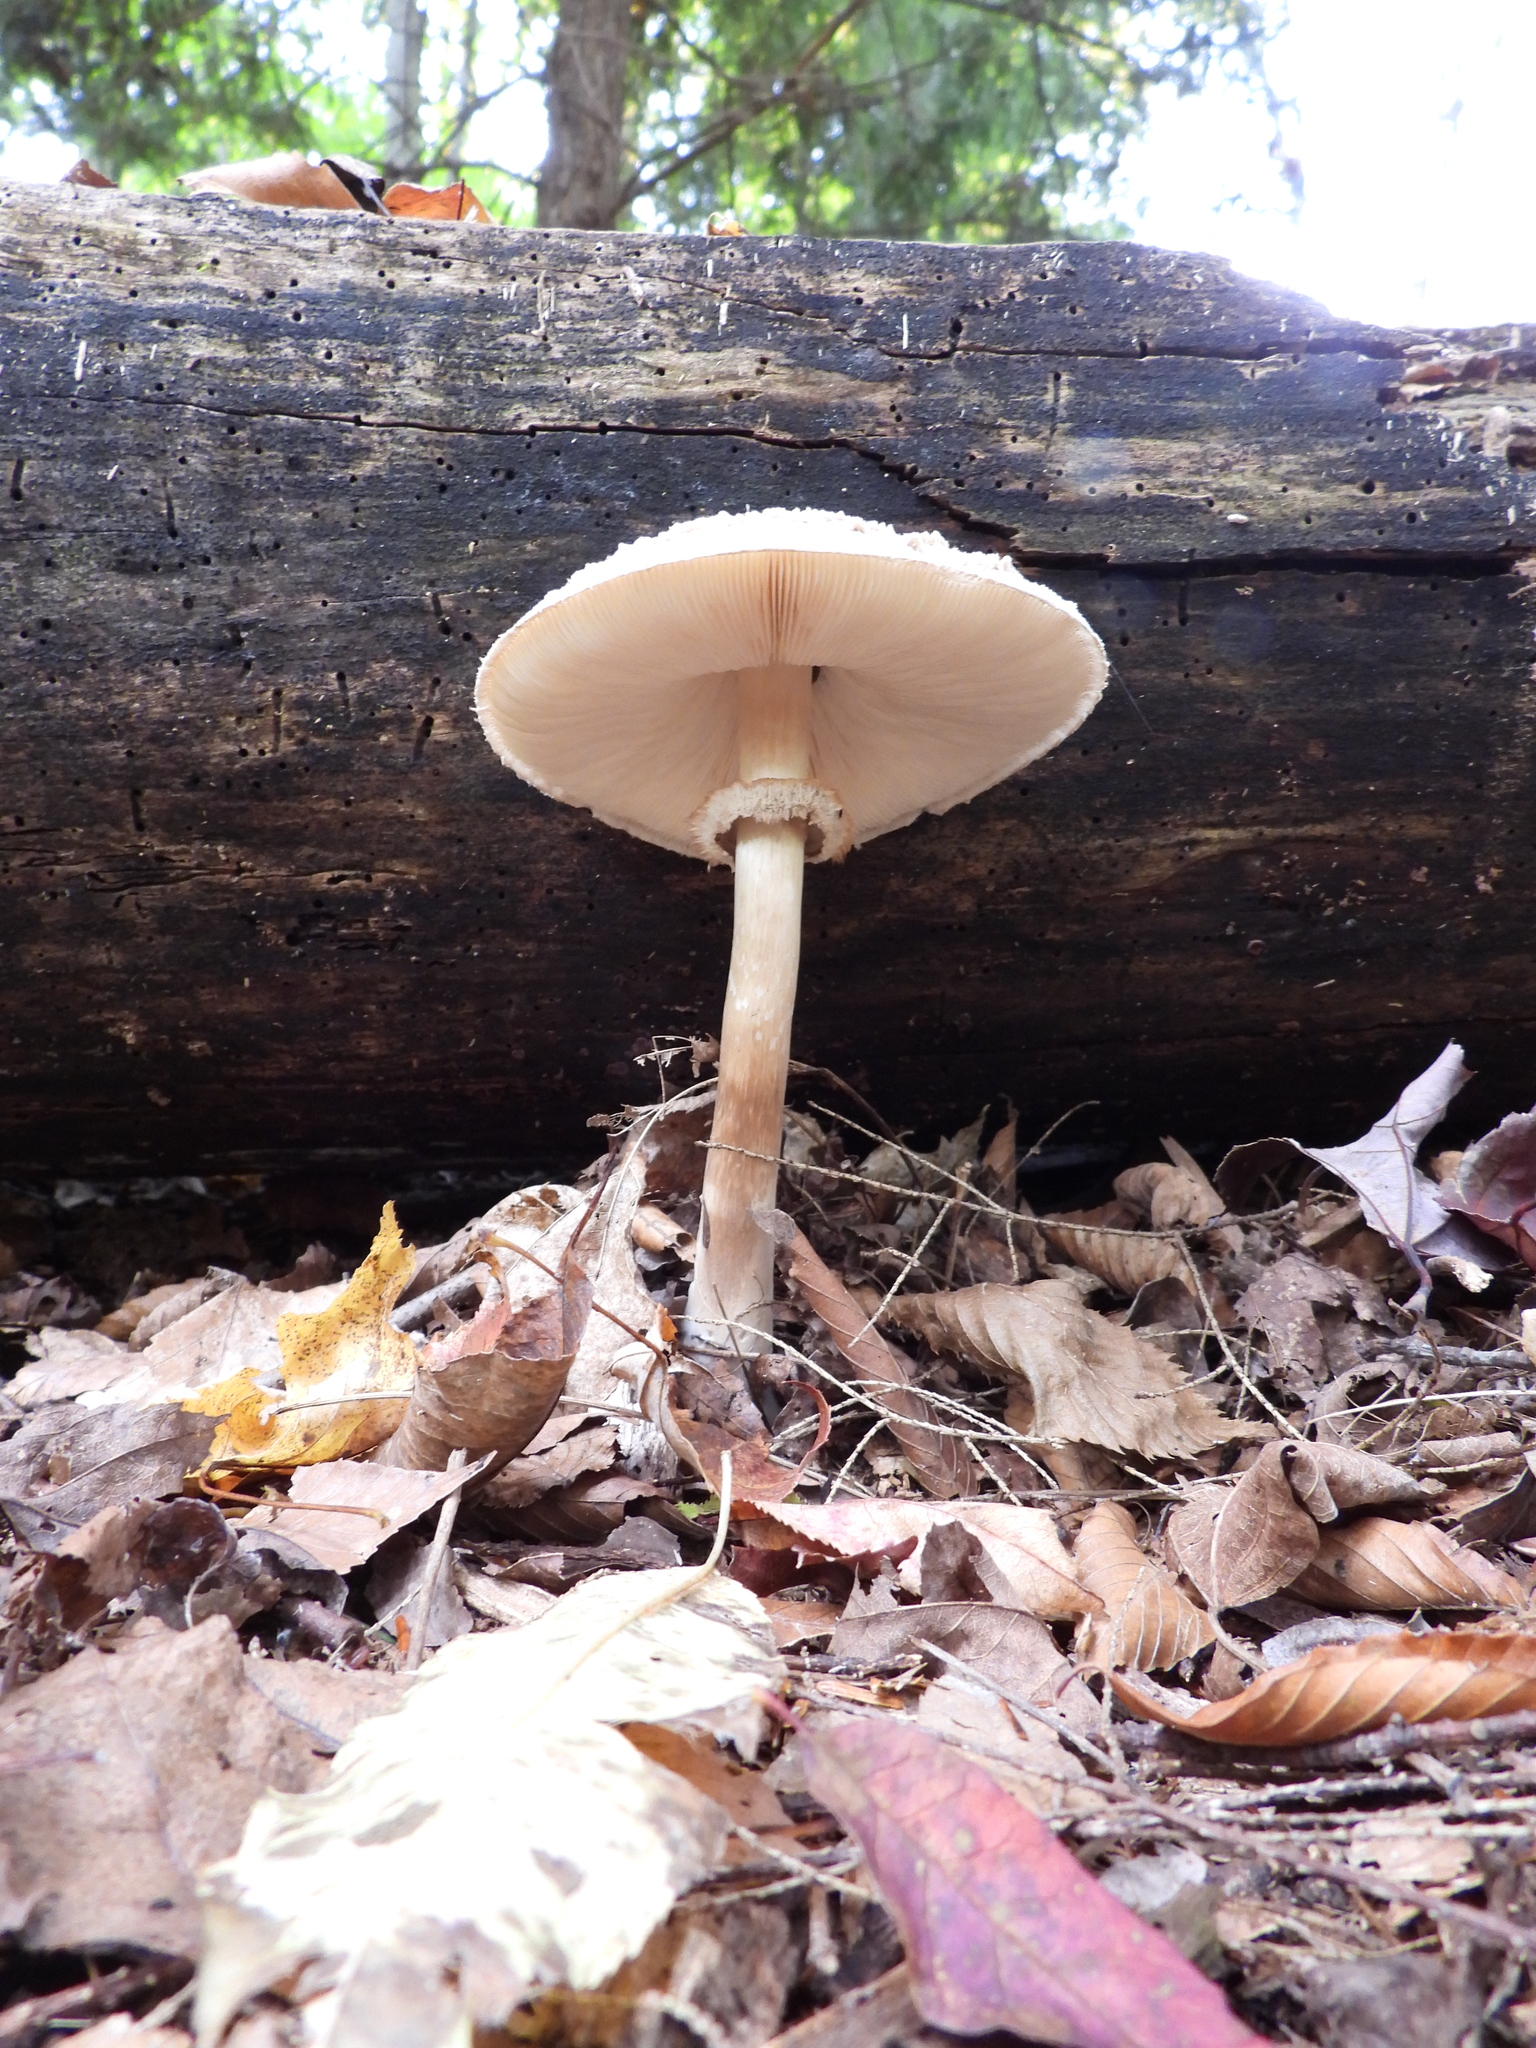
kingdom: Fungi
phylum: Basidiomycota
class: Agaricomycetes
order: Agaricales
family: Agaricaceae
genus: Chlorophyllum
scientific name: Chlorophyllum rhacodes
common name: Shaggy parasol
